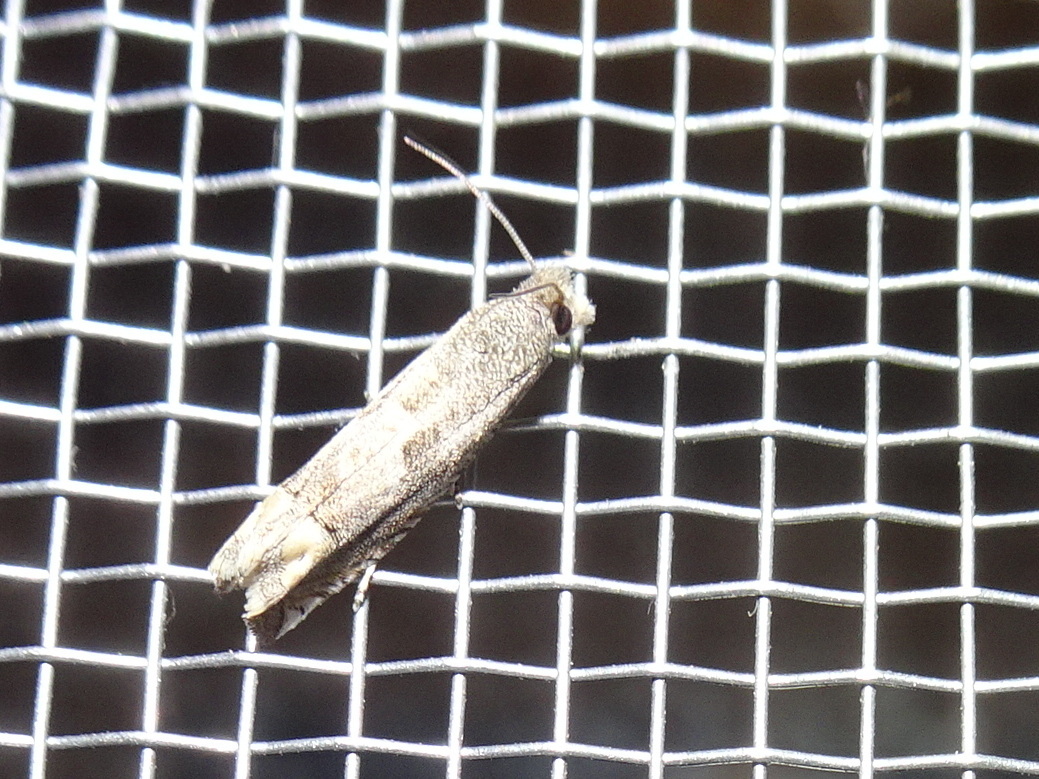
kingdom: Animalia
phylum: Arthropoda
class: Insecta
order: Lepidoptera
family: Tortricidae
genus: Epiblema
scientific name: Epiblema strenuana
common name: Ragweed borer moth
